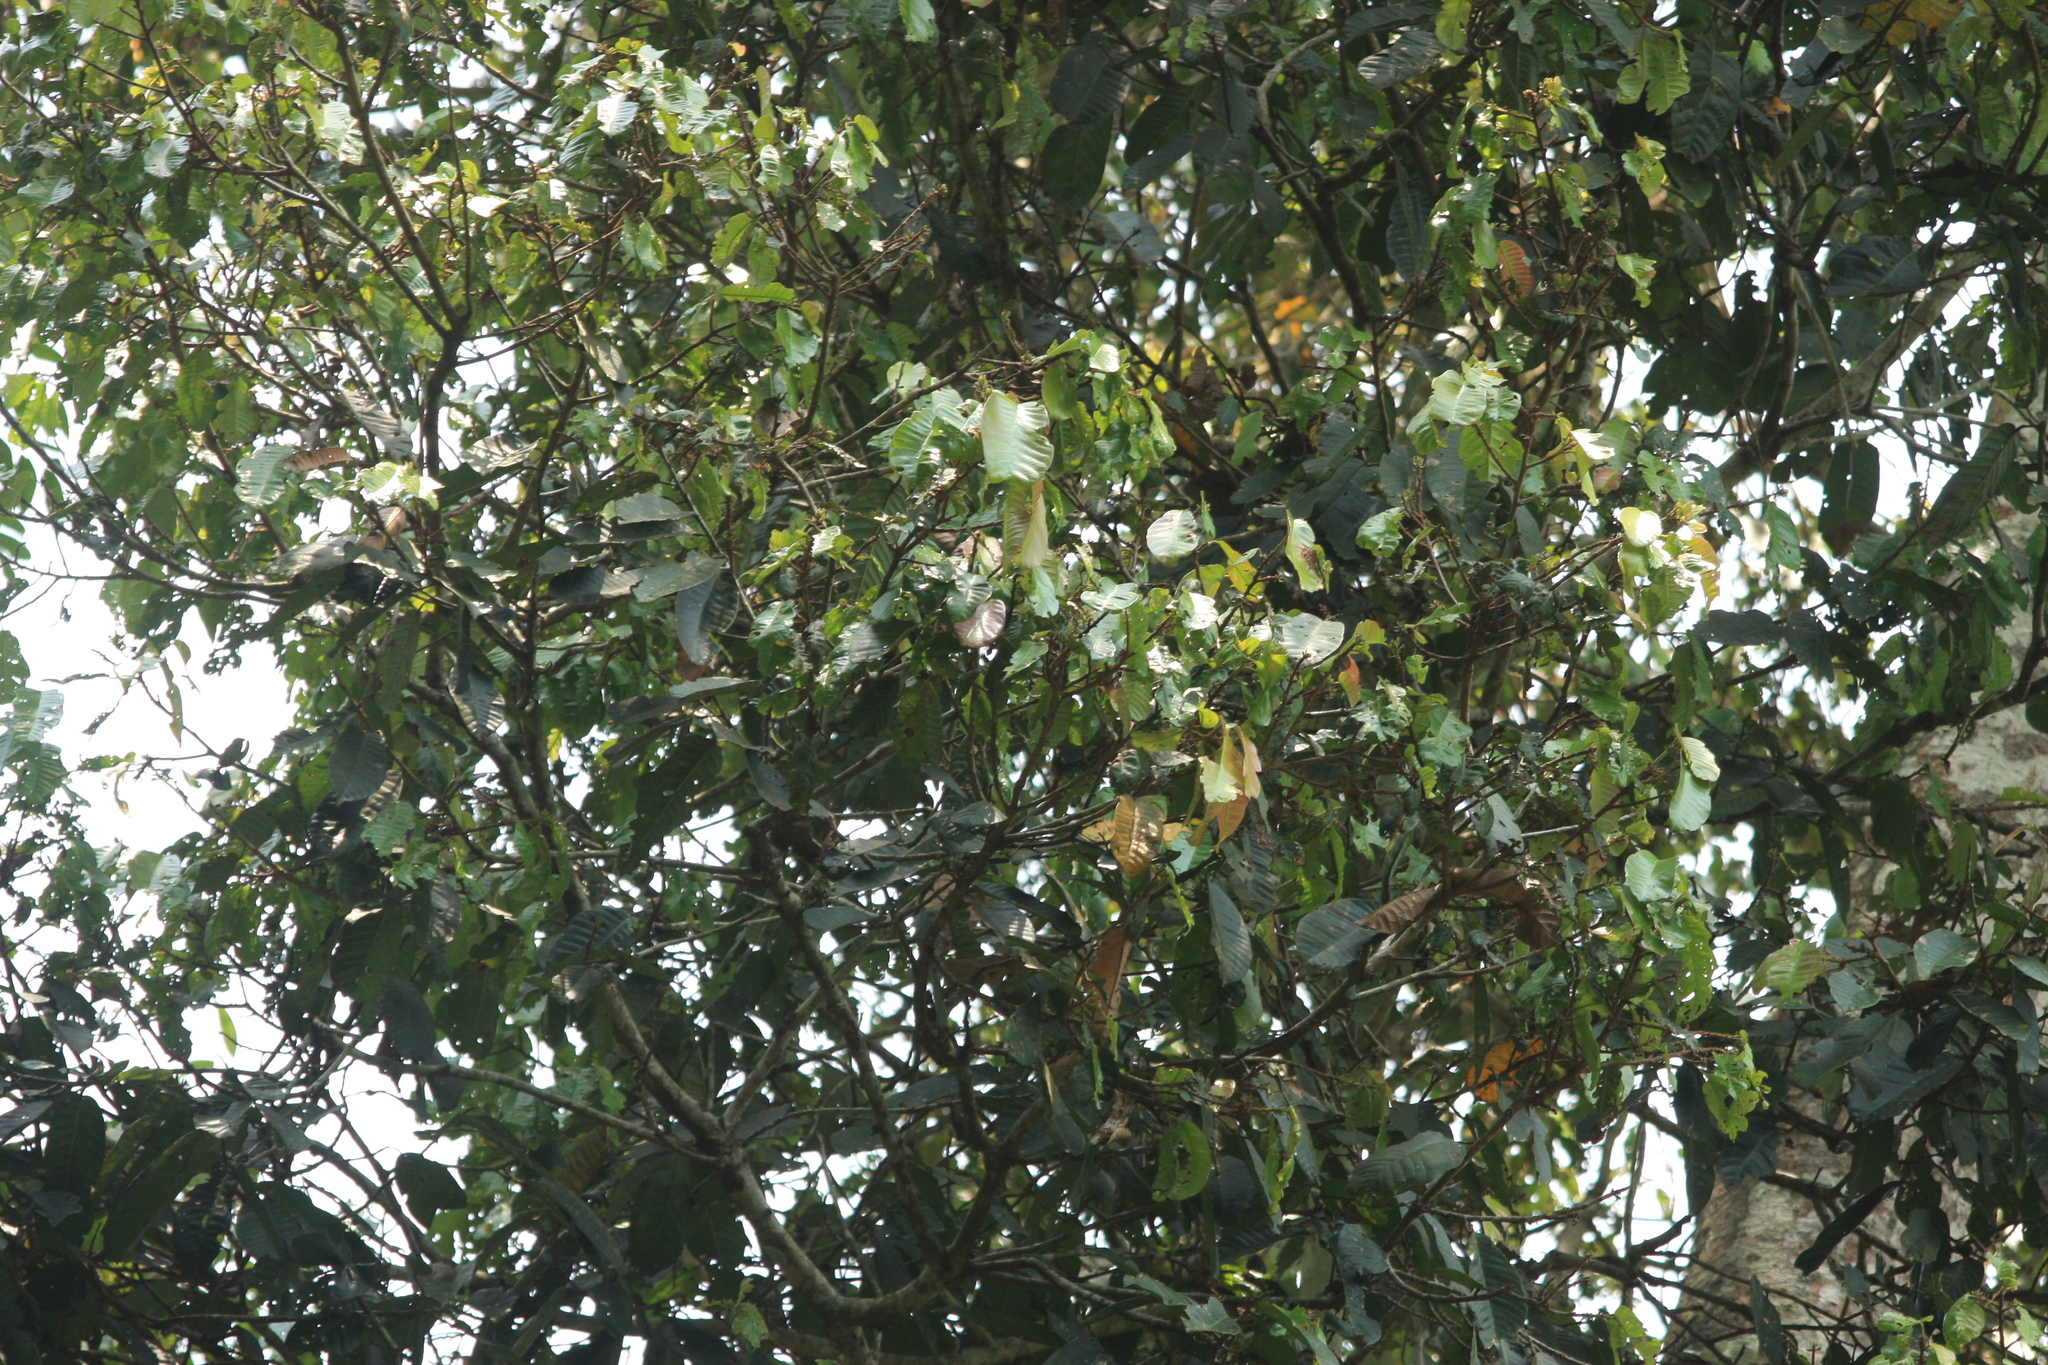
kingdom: Plantae
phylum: Tracheophyta
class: Magnoliopsida
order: Malvales
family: Dipterocarpaceae
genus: Vateria
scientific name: Vateria indica
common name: White dammar
